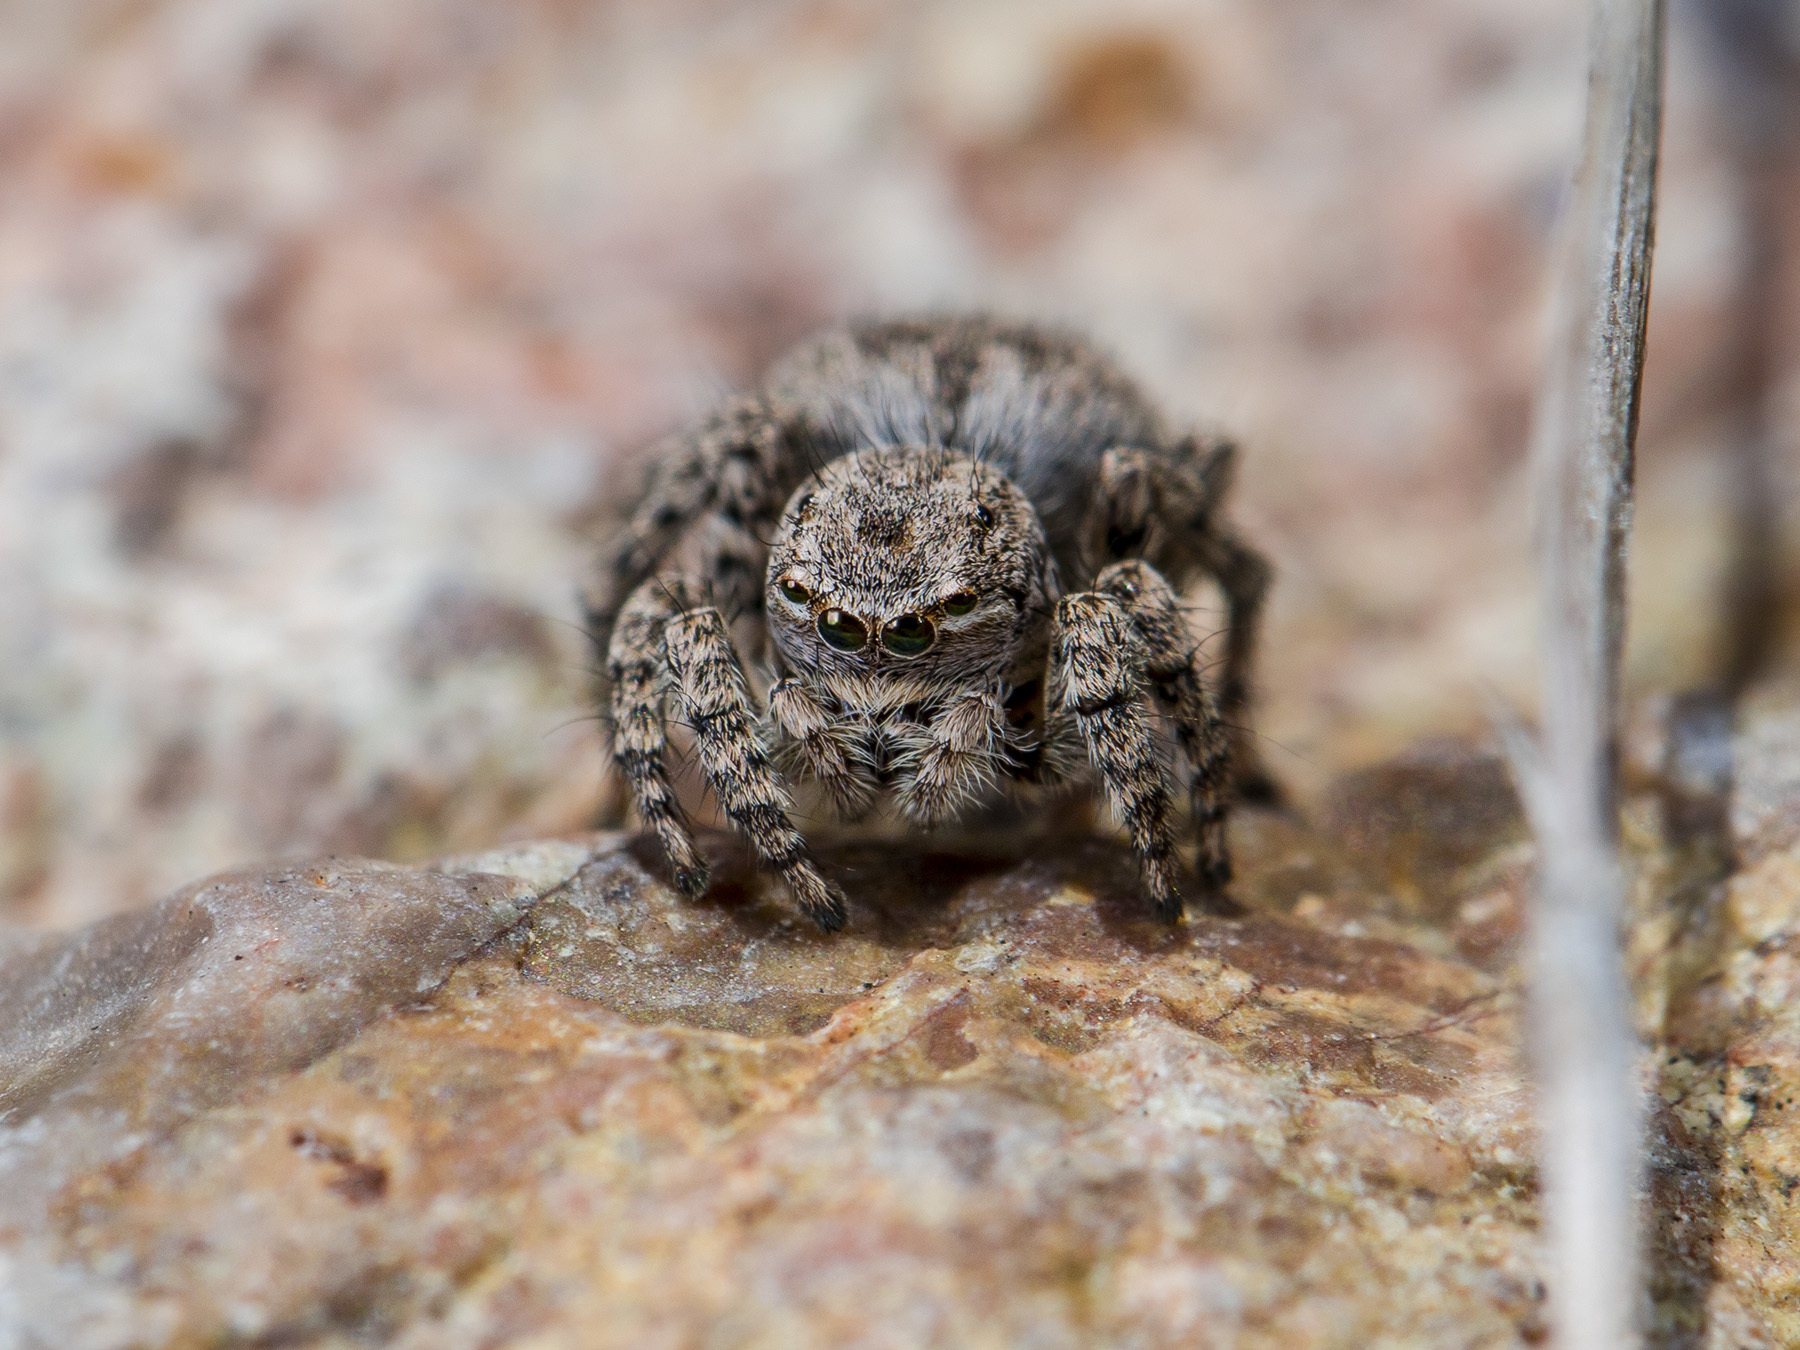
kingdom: Animalia
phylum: Arthropoda
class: Arachnida
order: Araneae
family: Salticidae
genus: Aelurillus
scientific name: Aelurillus v-insignitus
